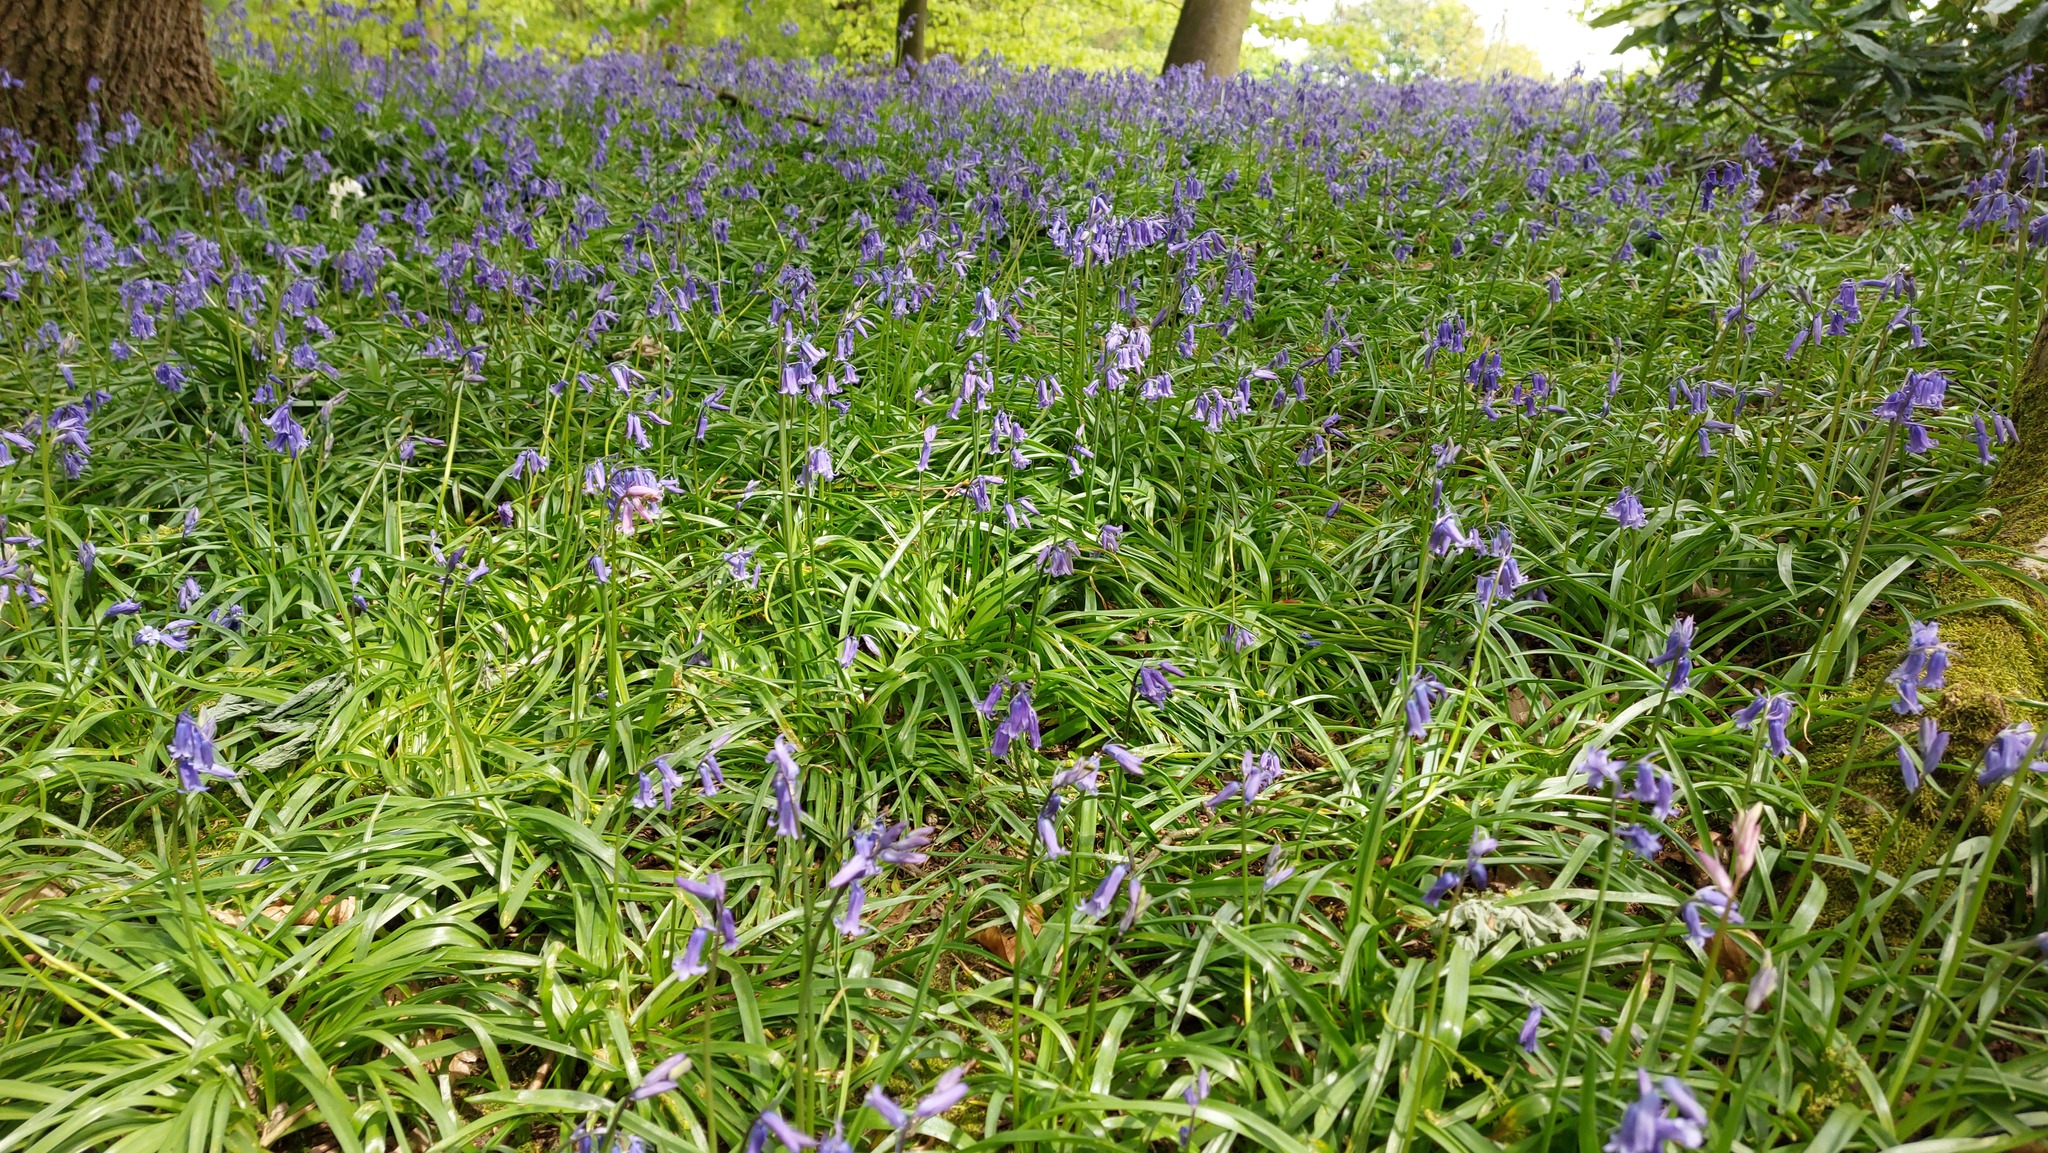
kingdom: Plantae
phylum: Tracheophyta
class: Liliopsida
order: Asparagales
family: Asparagaceae
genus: Hyacinthoides
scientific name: Hyacinthoides non-scripta
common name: Bluebell
